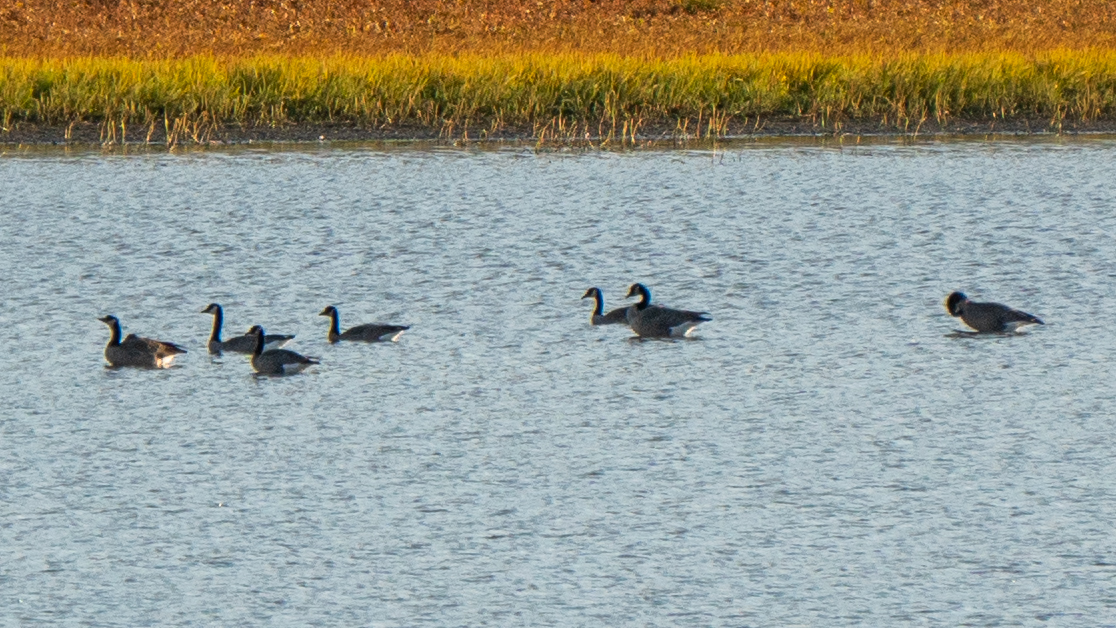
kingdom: Animalia
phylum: Chordata
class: Aves
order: Anseriformes
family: Anatidae
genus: Branta
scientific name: Branta canadensis
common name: Canada goose
